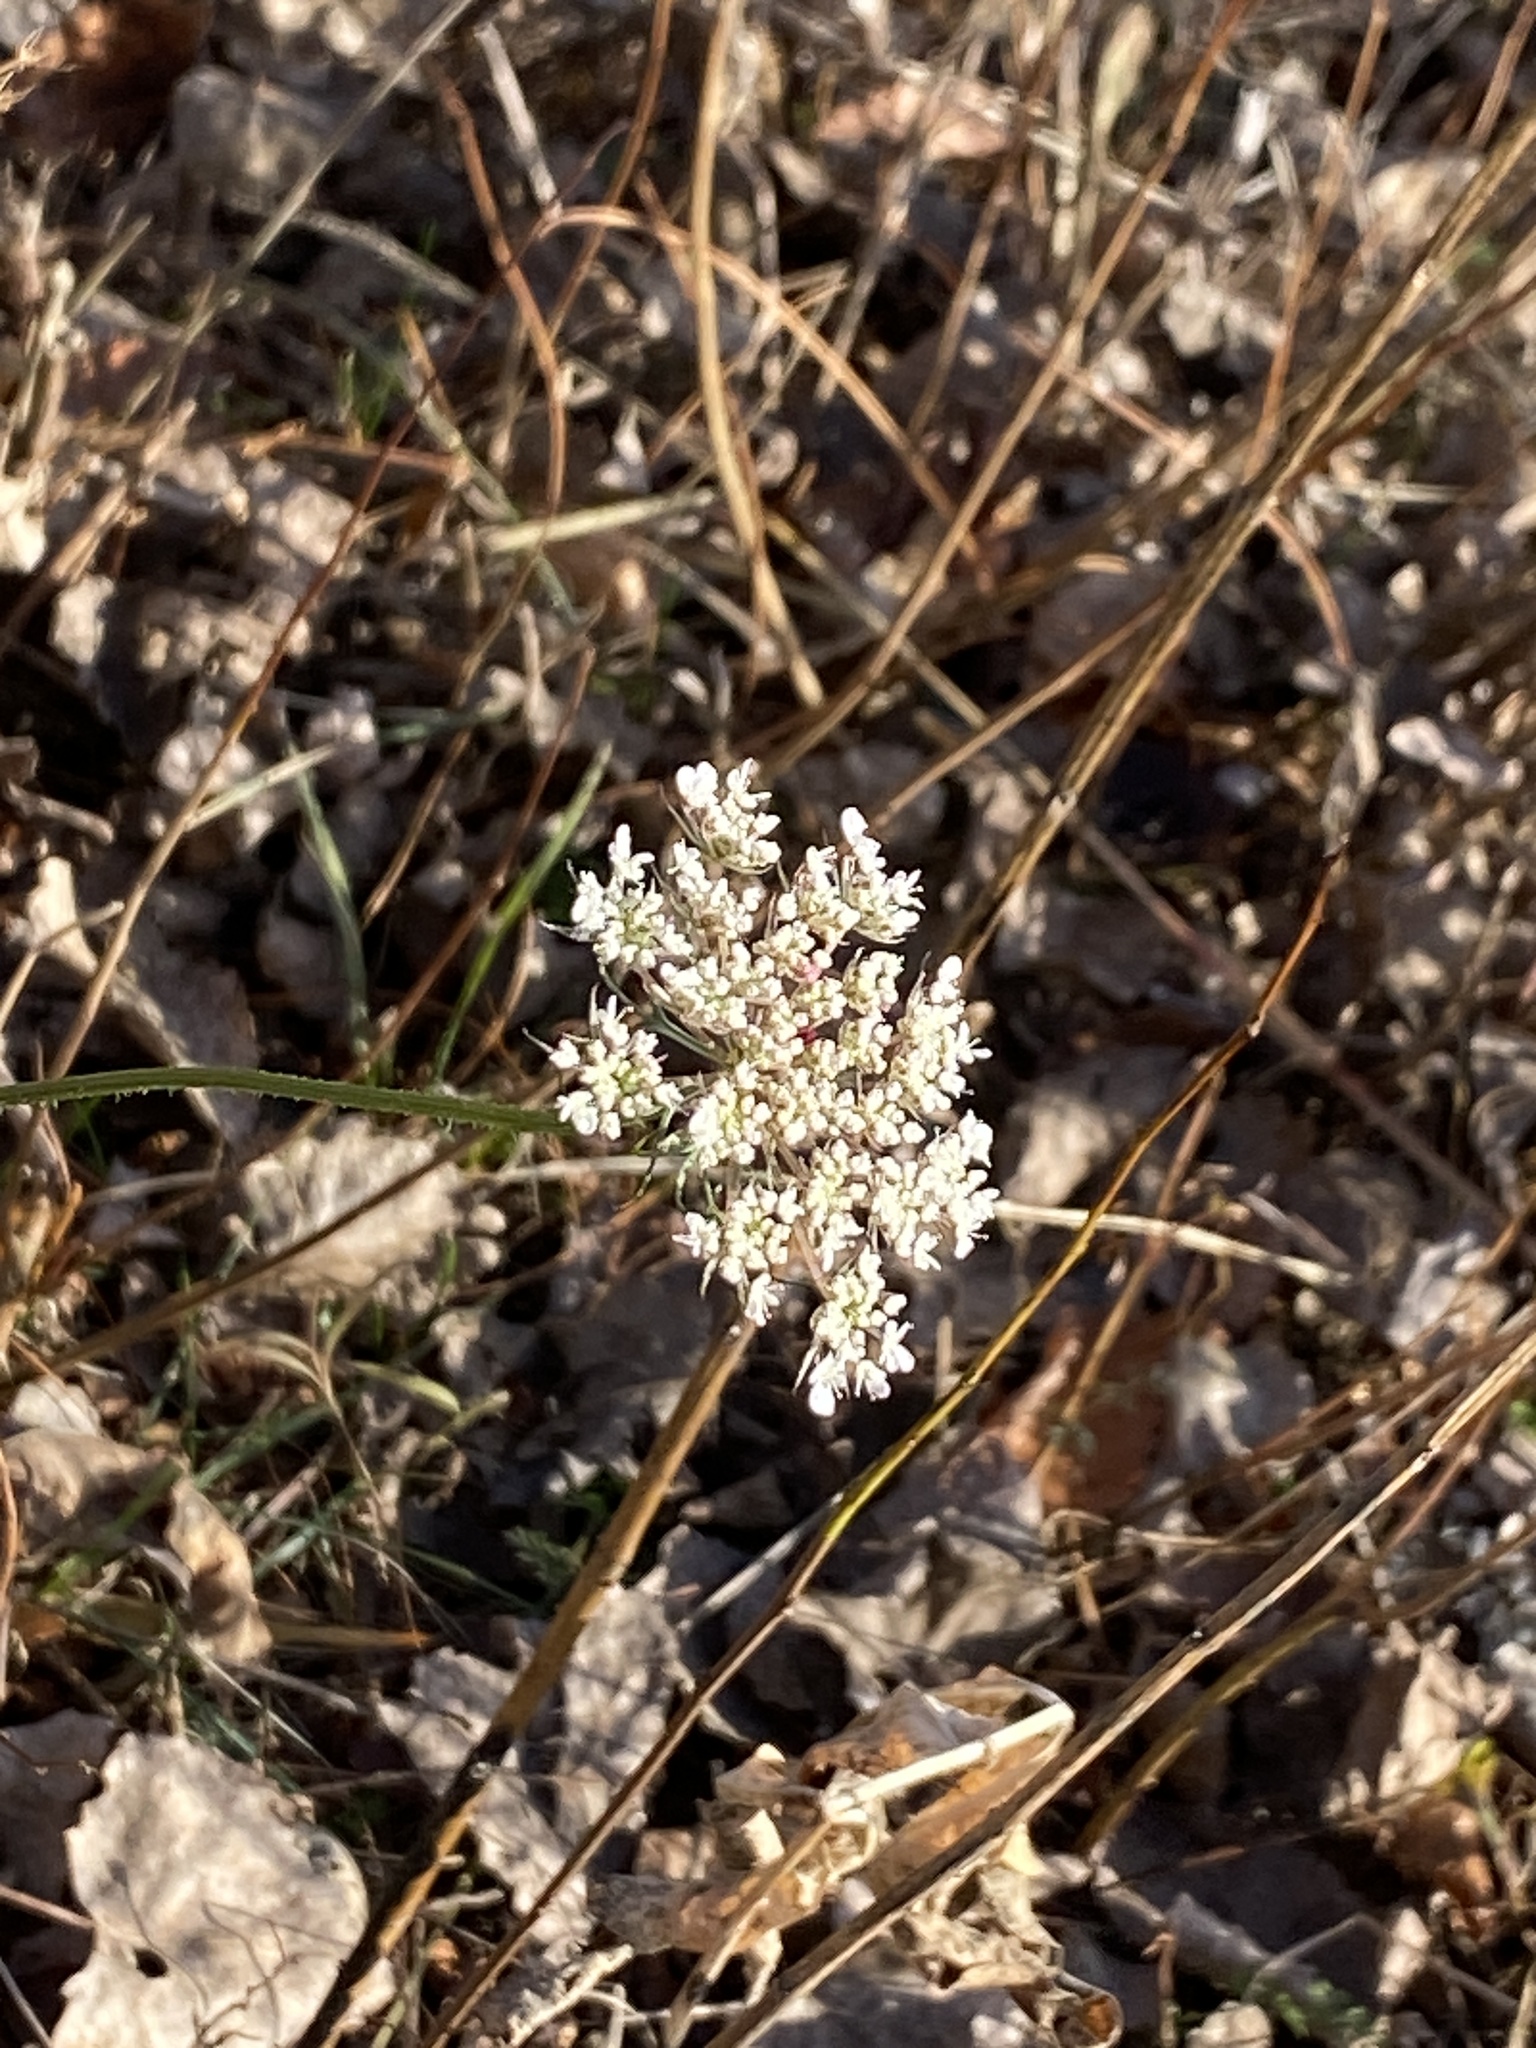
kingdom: Plantae
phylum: Tracheophyta
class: Magnoliopsida
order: Apiales
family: Apiaceae
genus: Daucus
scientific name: Daucus carota
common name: Wild carrot
